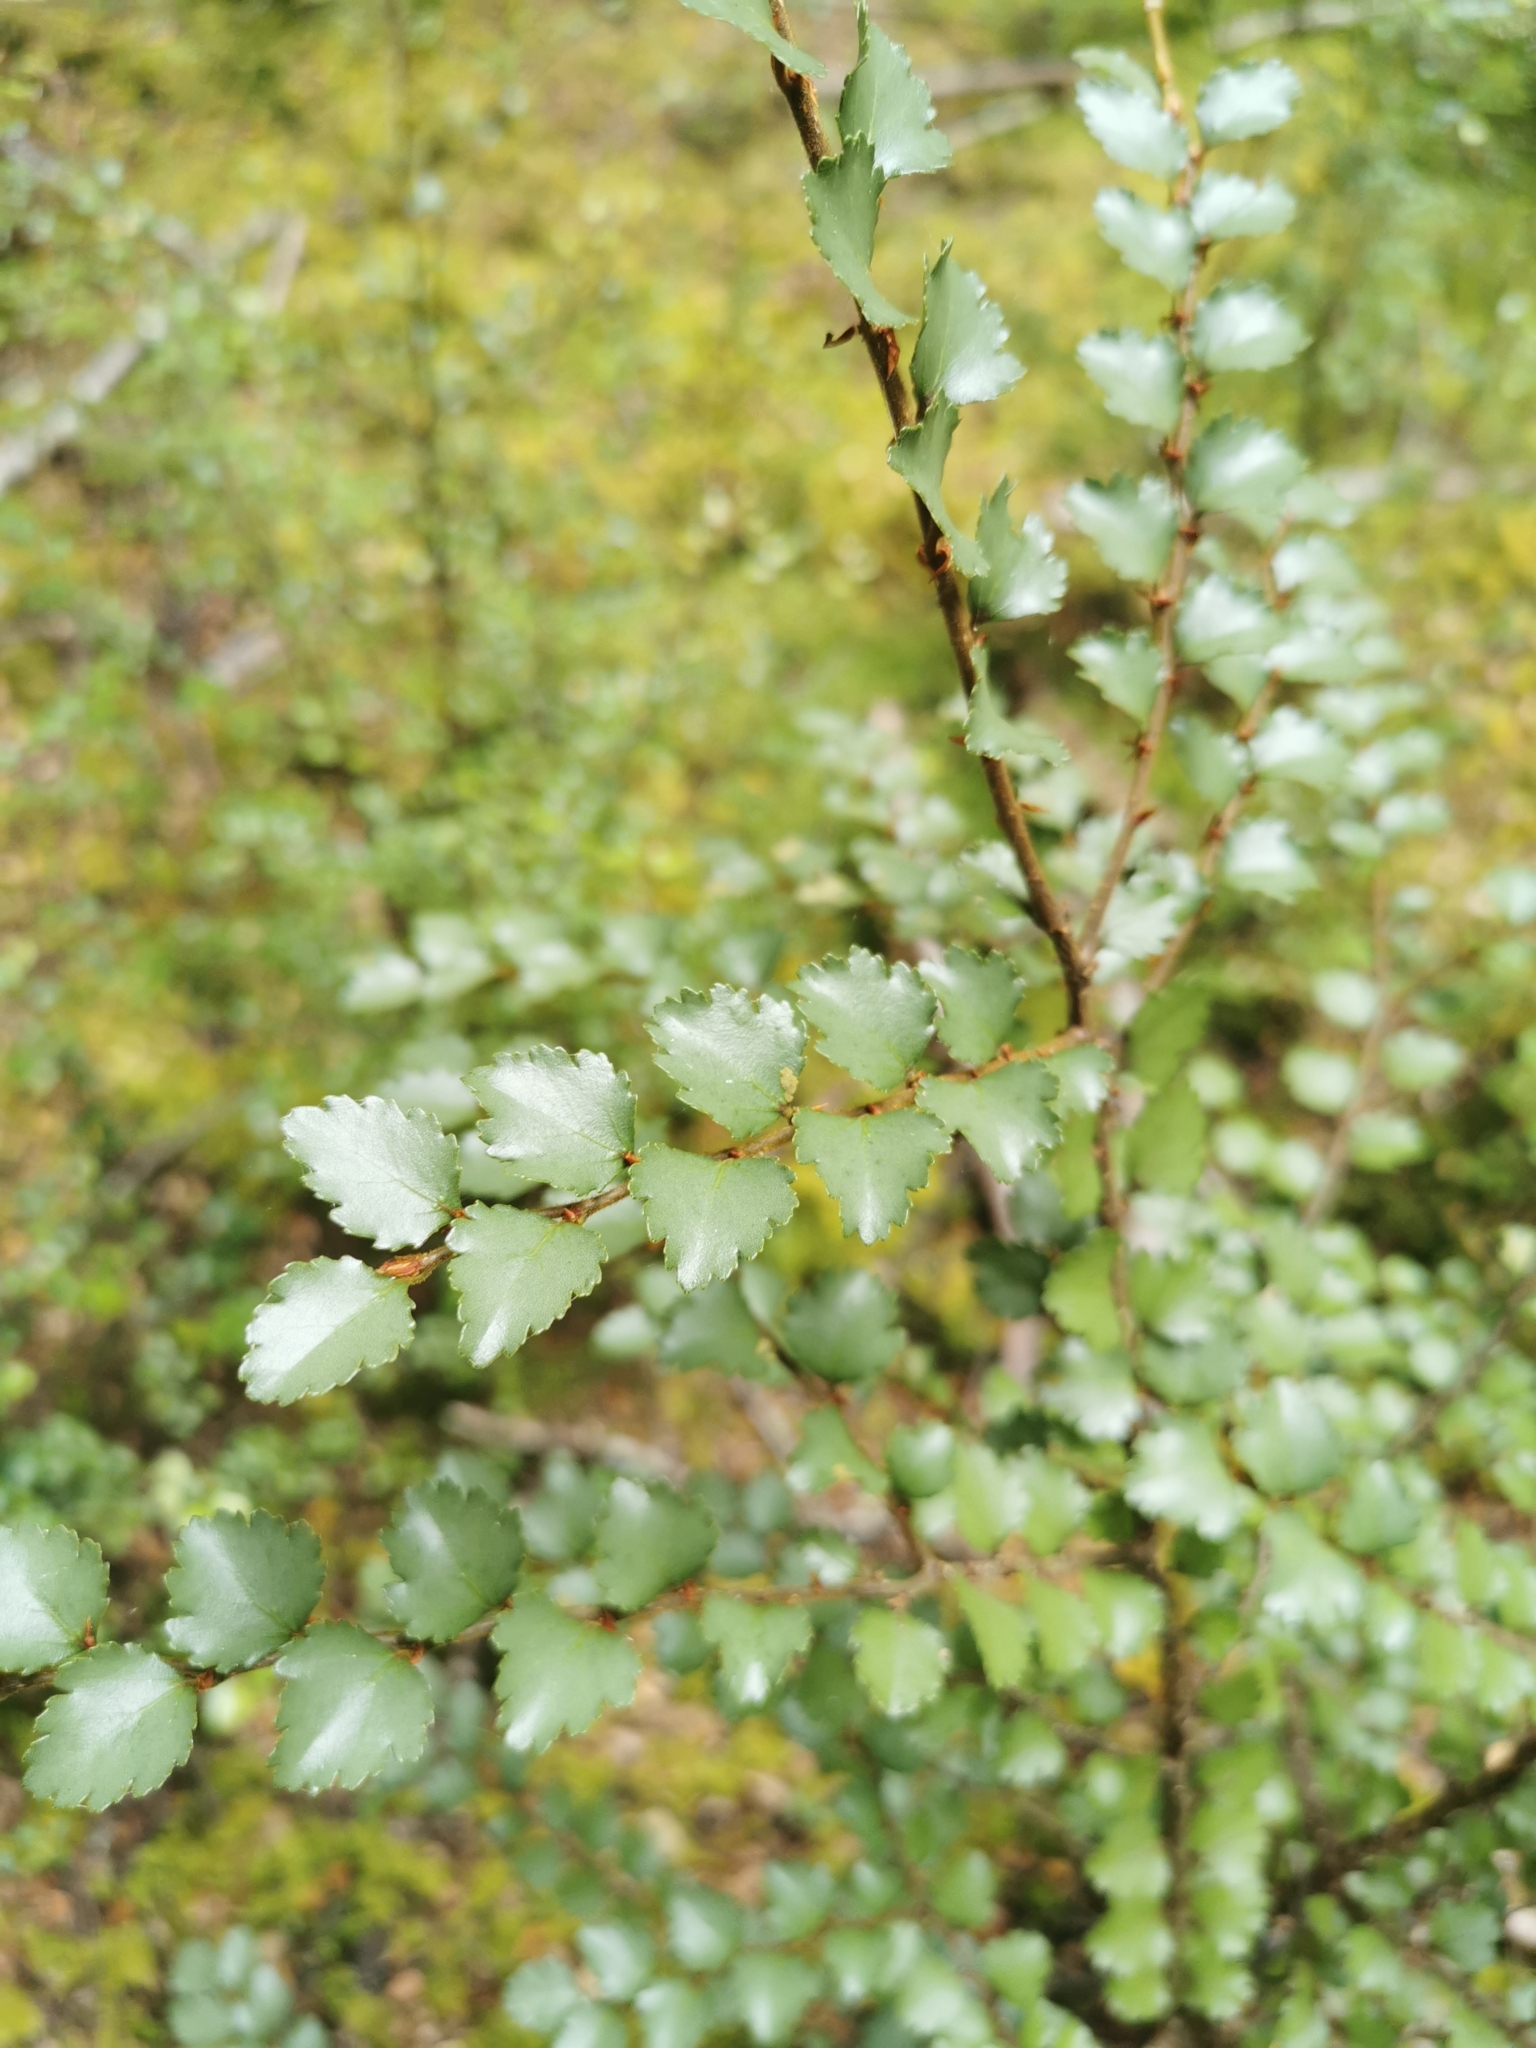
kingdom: Plantae
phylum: Tracheophyta
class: Magnoliopsida
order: Fagales
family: Nothofagaceae
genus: Nothofagus
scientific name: Nothofagus menziesii
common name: Silver beech
